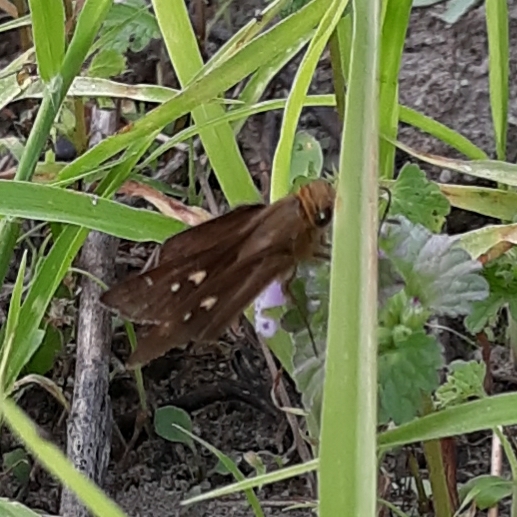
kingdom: Animalia
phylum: Arthropoda
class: Insecta
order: Lepidoptera
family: Hesperiidae
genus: Panoquina
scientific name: Panoquina ocola
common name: Ocola skipper
